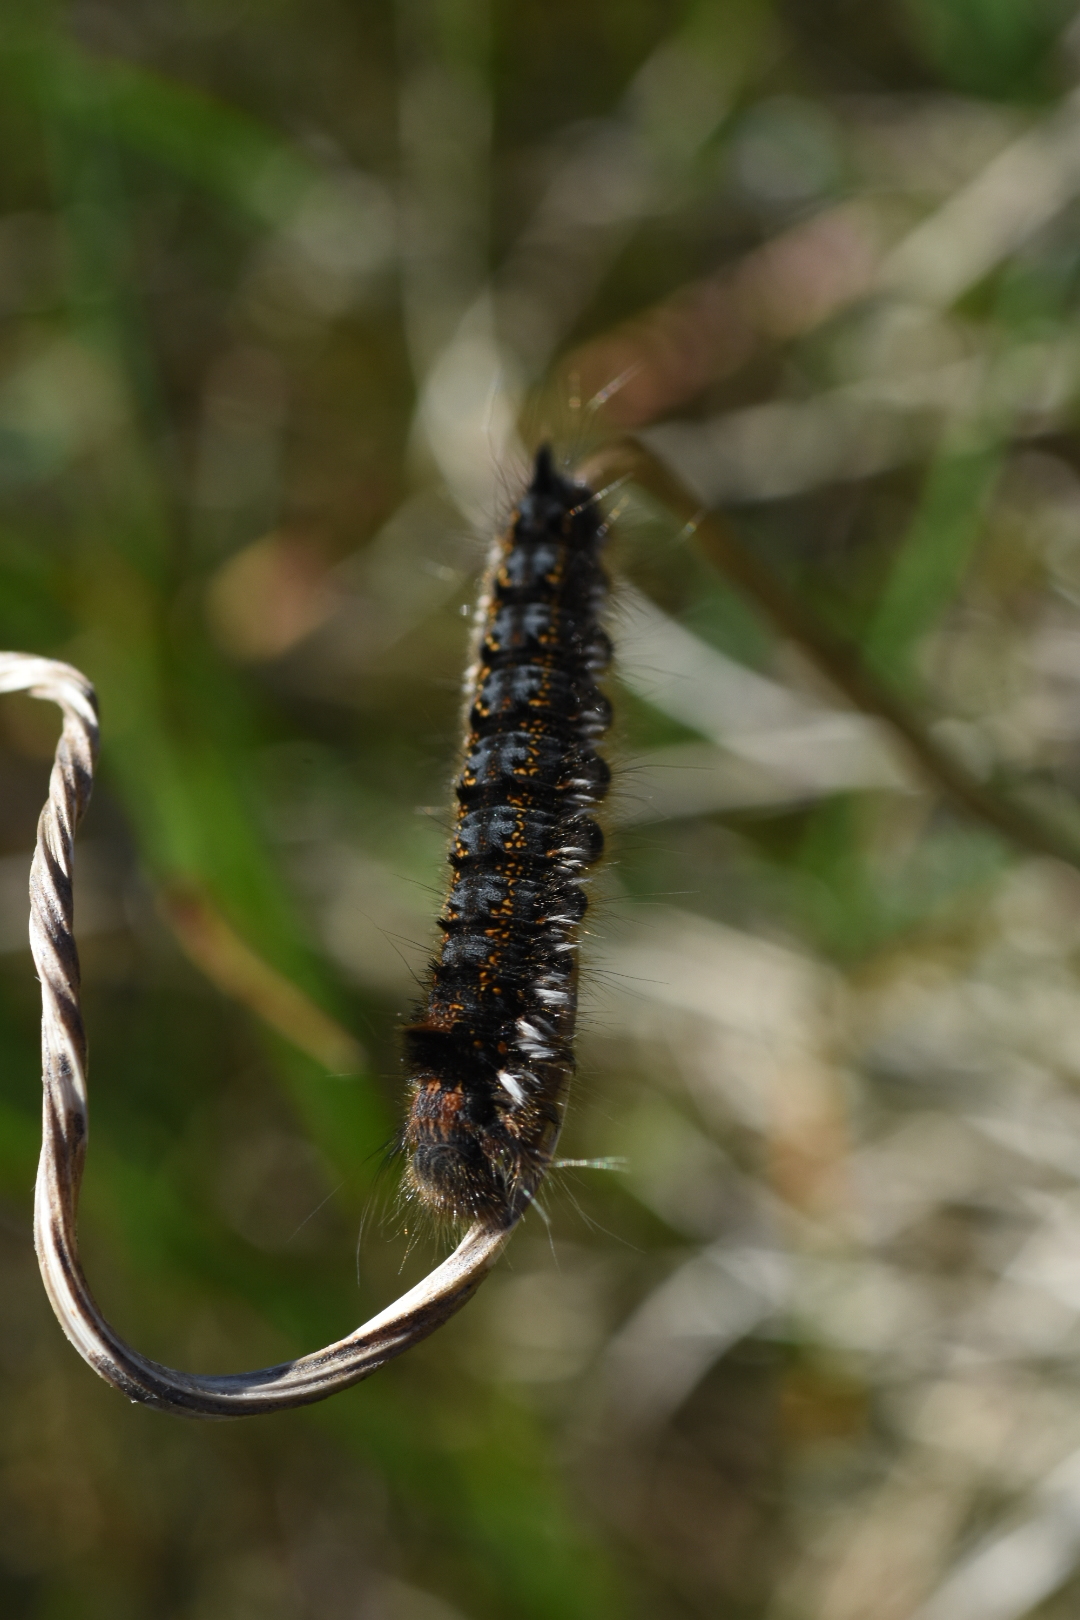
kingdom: Animalia
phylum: Arthropoda
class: Insecta
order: Lepidoptera
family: Lasiocampidae
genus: Euthrix
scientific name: Euthrix potatoria
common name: Drinker
